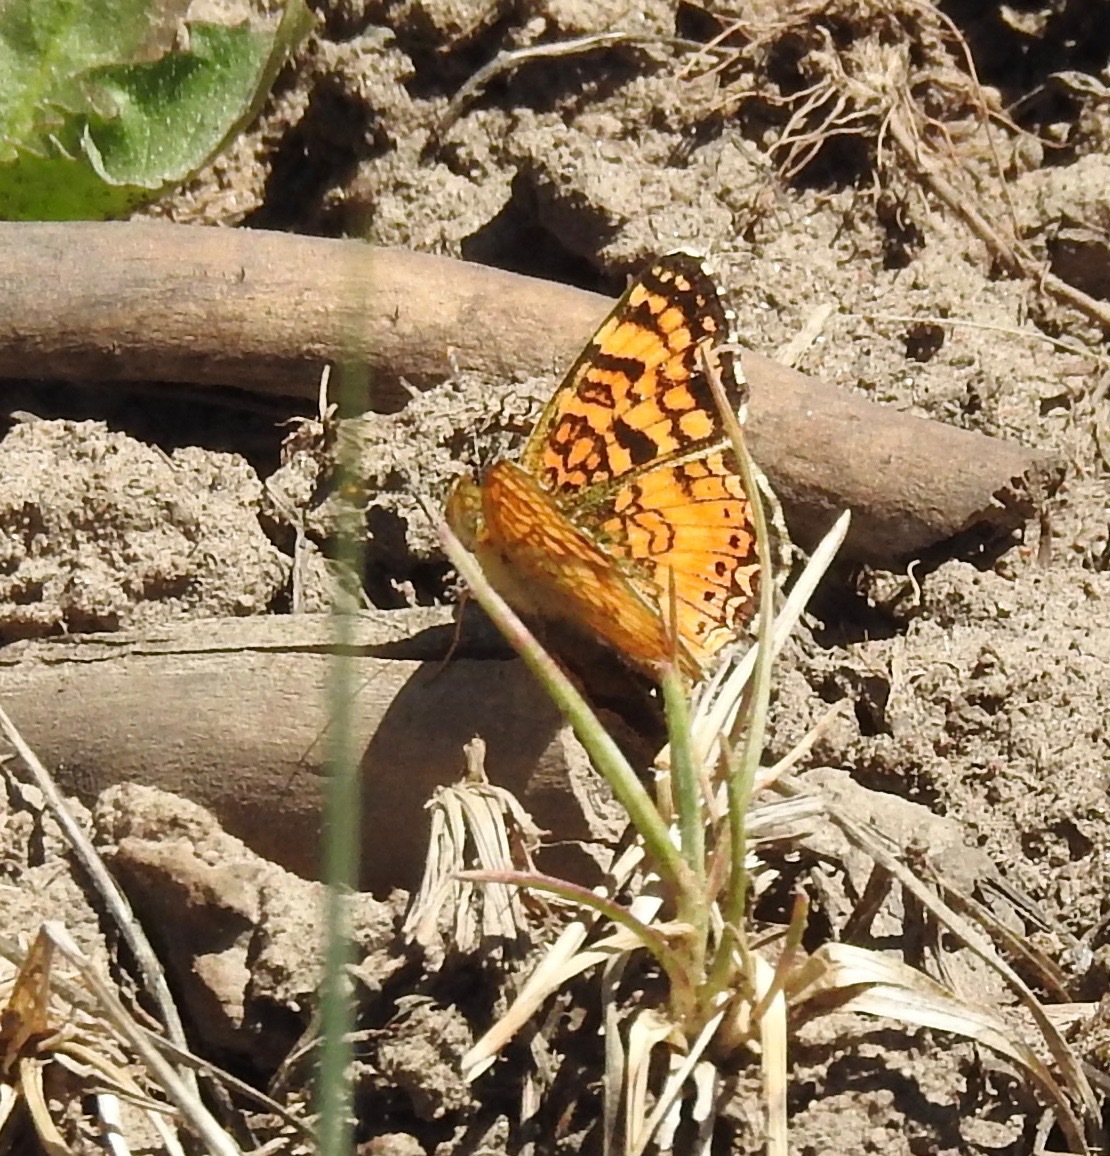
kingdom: Animalia
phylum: Arthropoda
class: Insecta
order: Lepidoptera
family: Nymphalidae
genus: Eresia
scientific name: Eresia aveyrona
